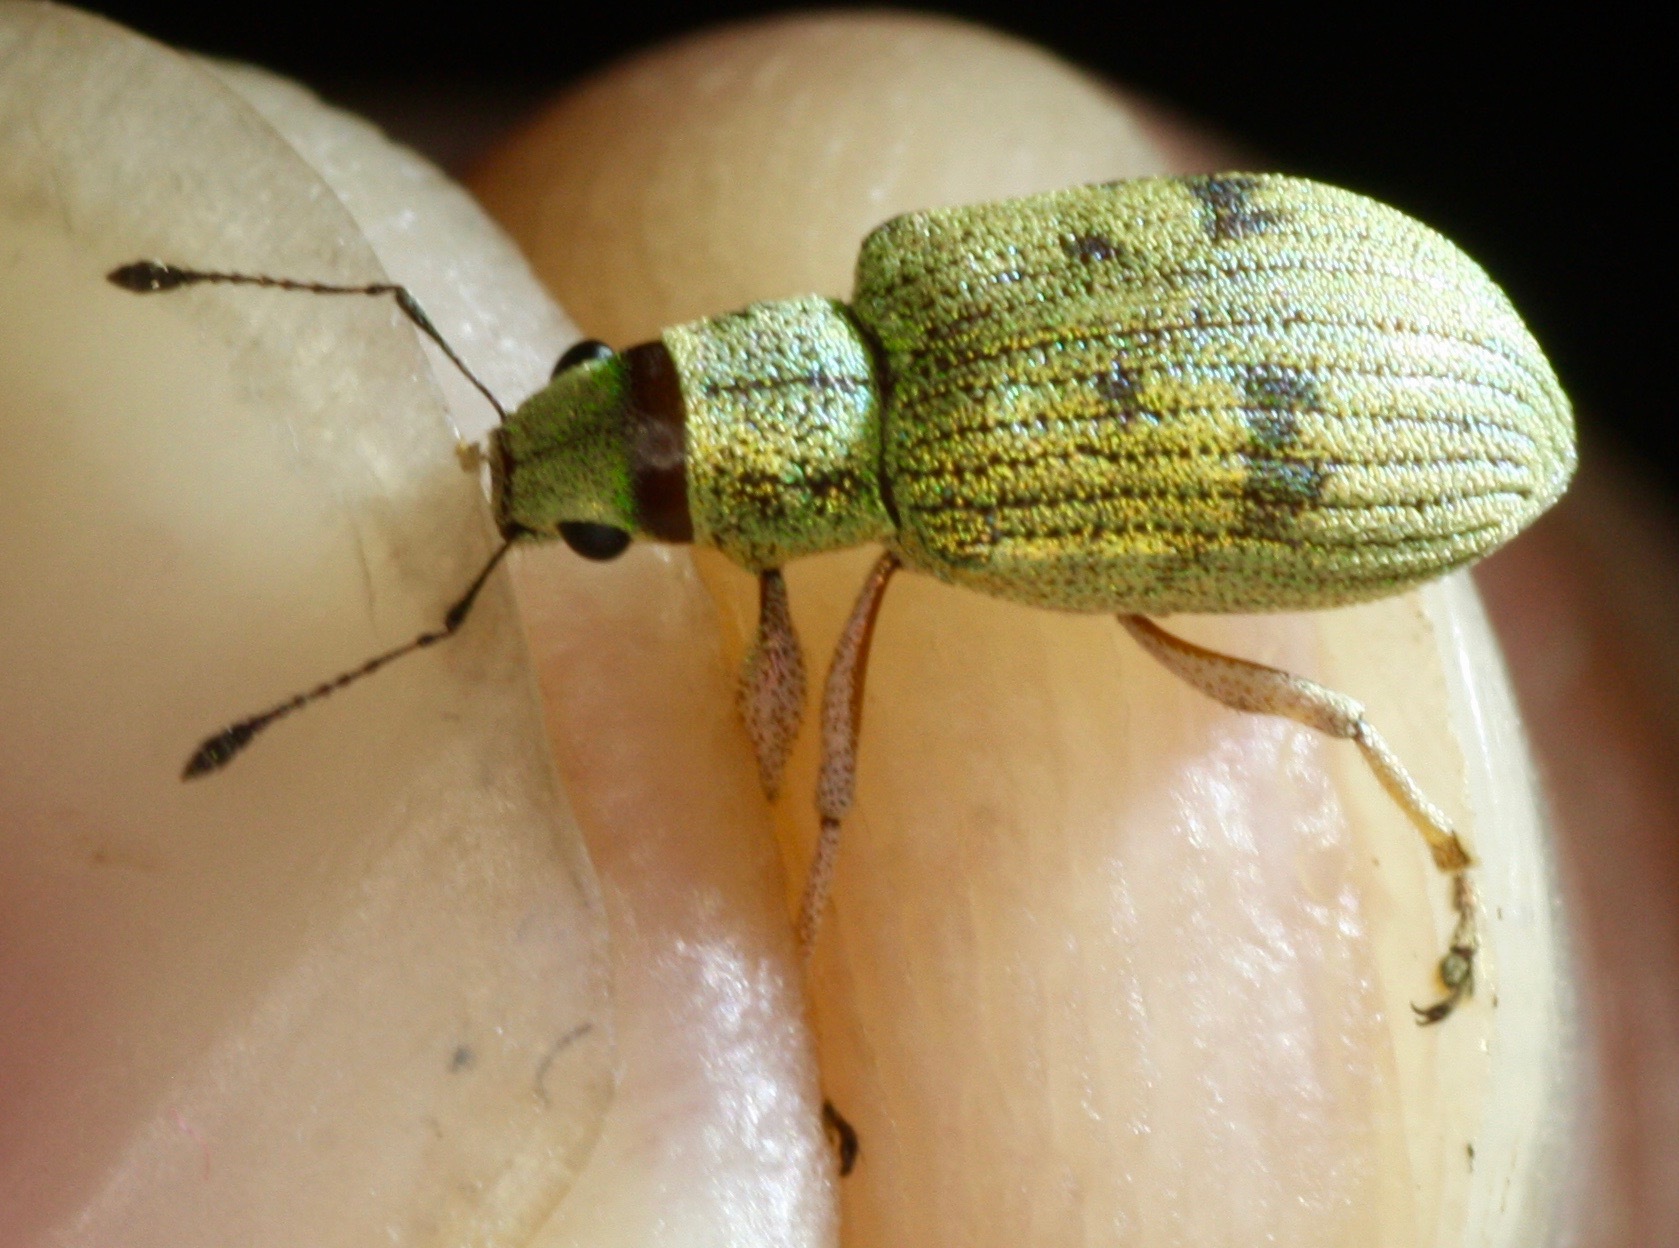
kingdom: Animalia
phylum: Arthropoda
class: Insecta
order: Coleoptera
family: Curculionidae
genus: Macrostylus
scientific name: Macrostylus nebulosus
